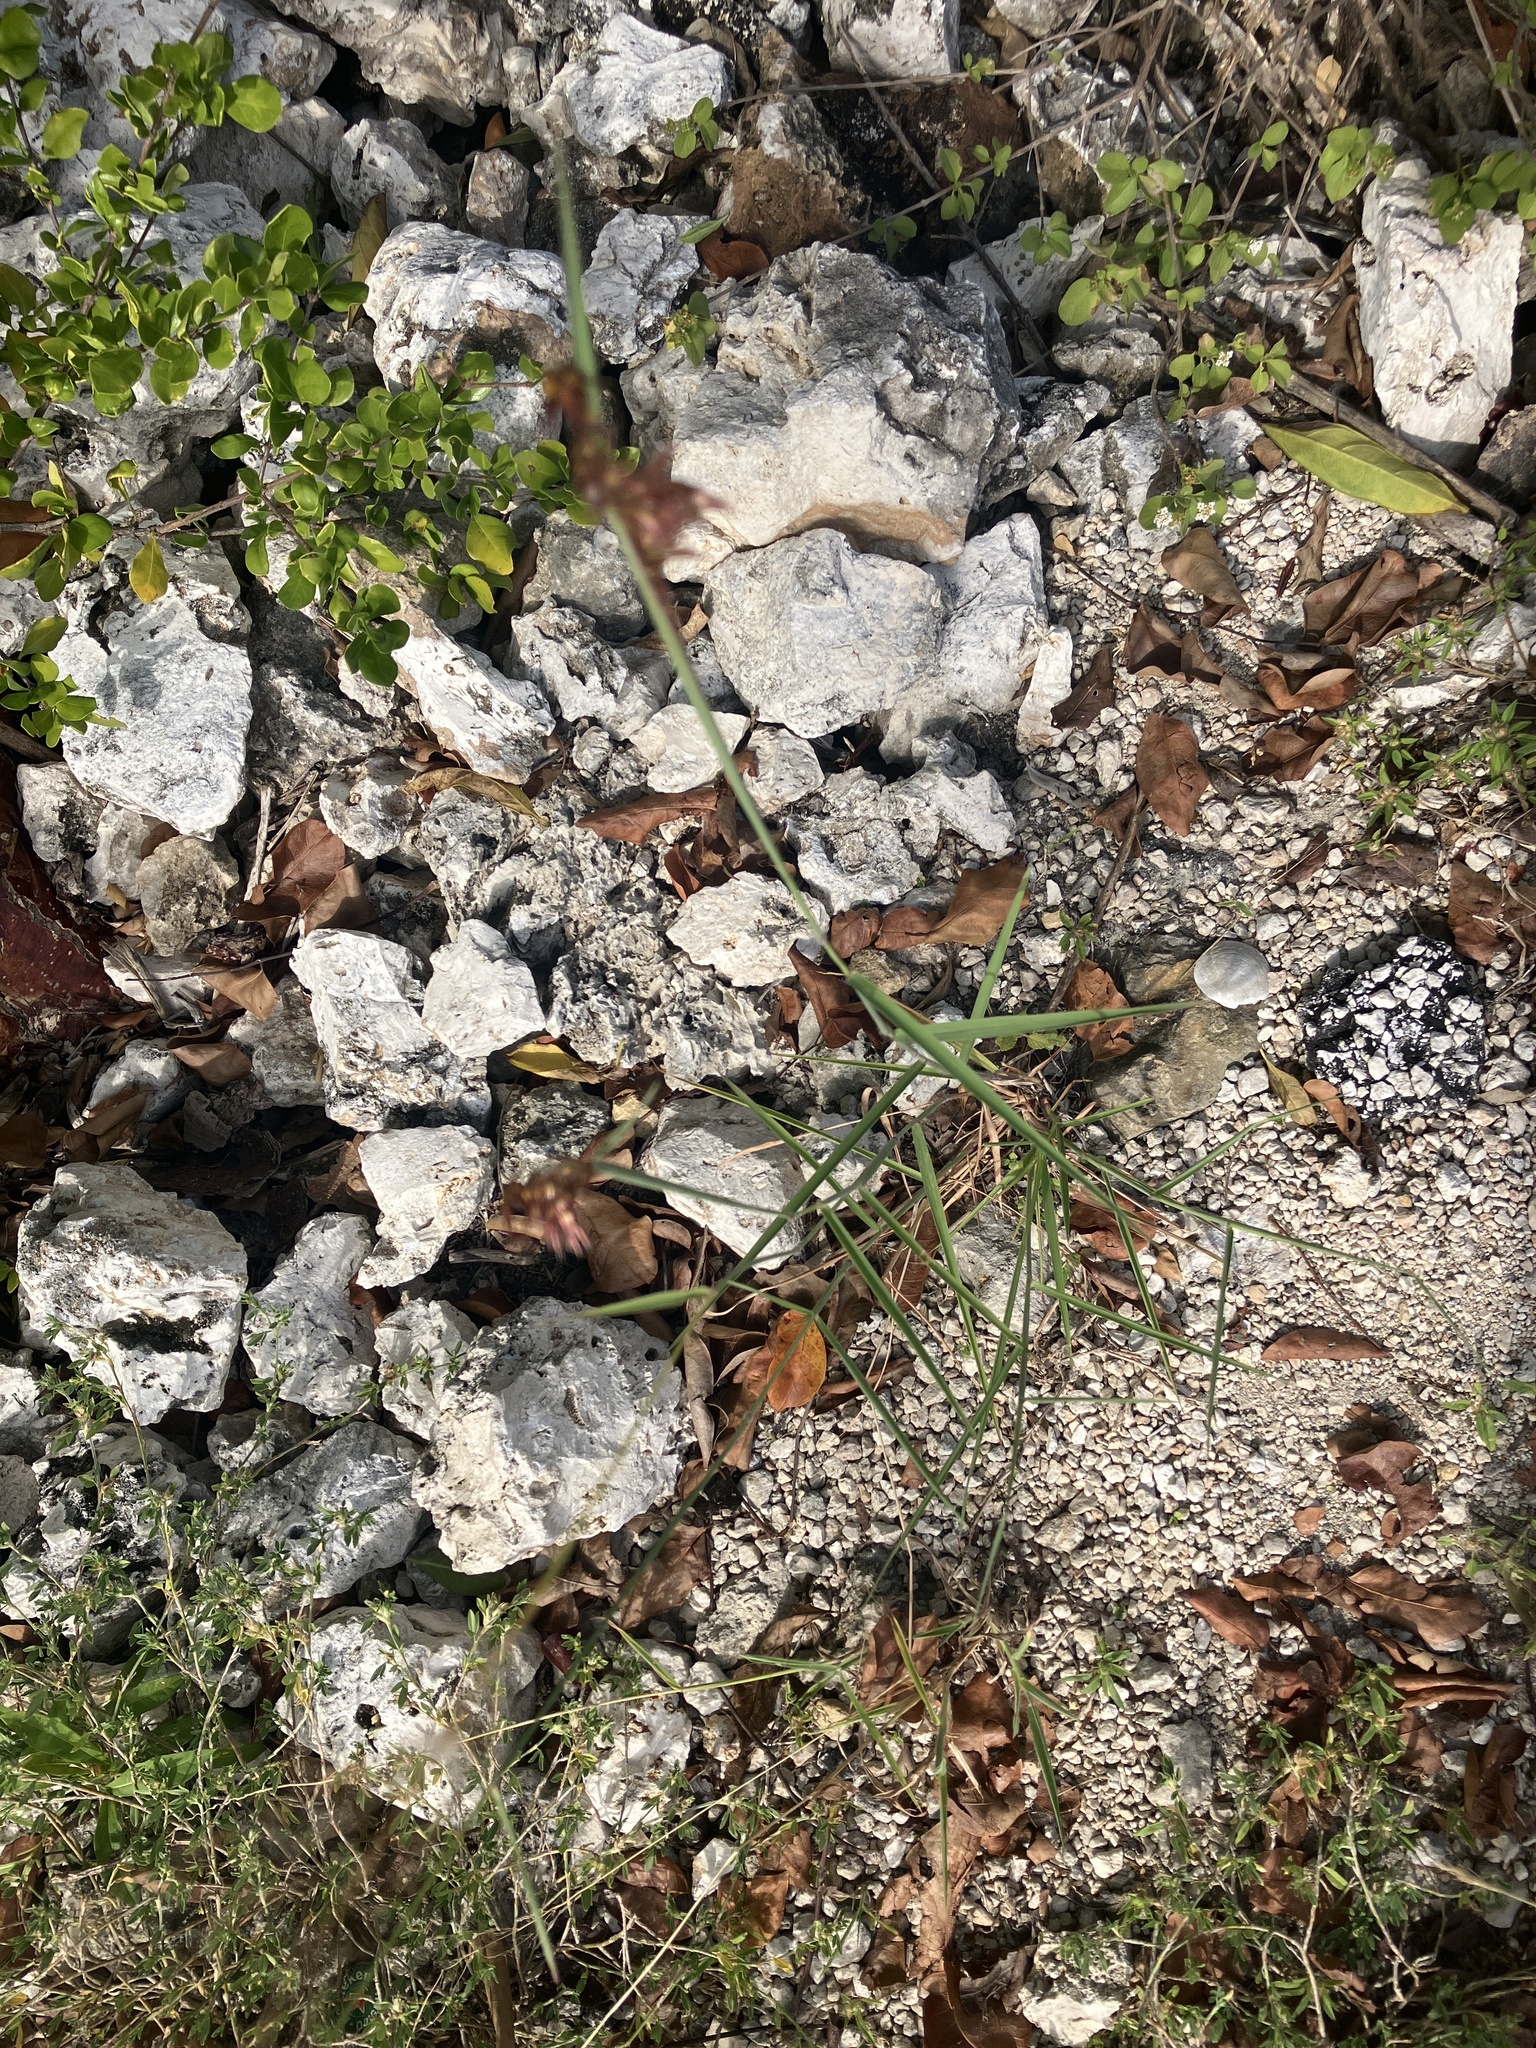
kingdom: Plantae
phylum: Tracheophyta
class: Liliopsida
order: Poales
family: Poaceae
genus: Melinis
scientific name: Melinis repens
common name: Rose natal grass
